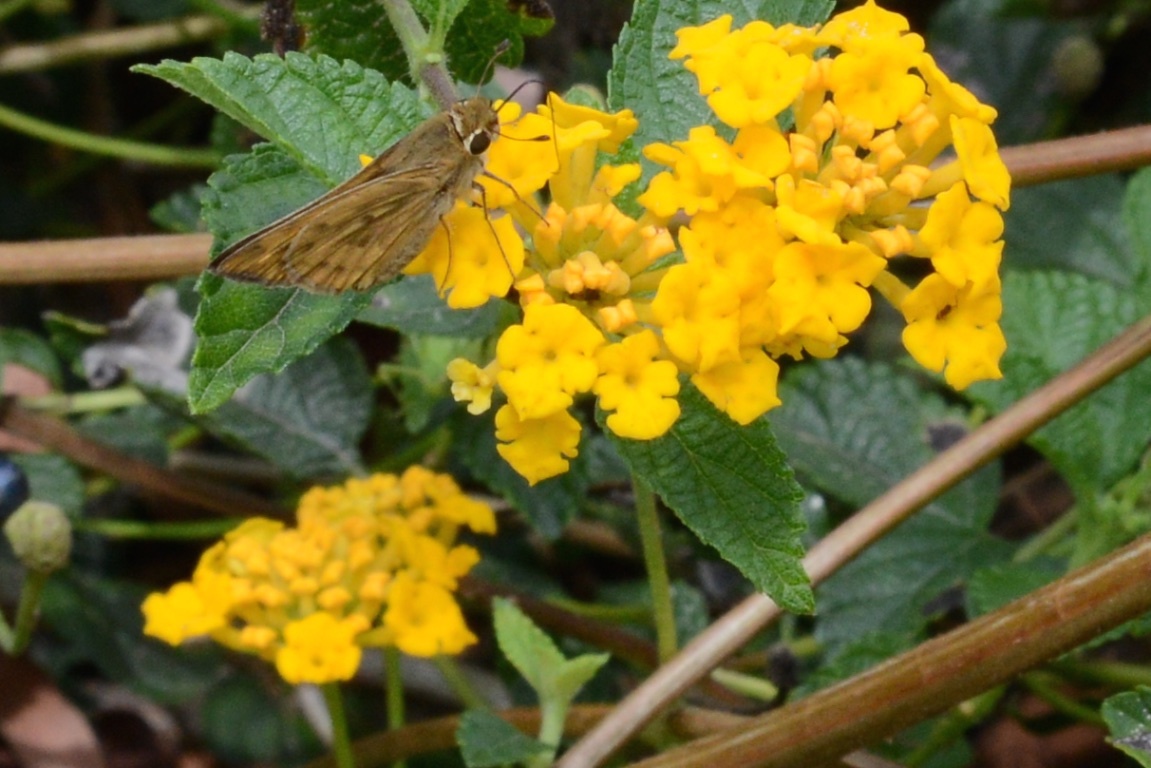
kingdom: Animalia
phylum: Arthropoda
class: Insecta
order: Lepidoptera
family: Hesperiidae
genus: Hylephila
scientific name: Hylephila phyleus
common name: Fiery skipper
